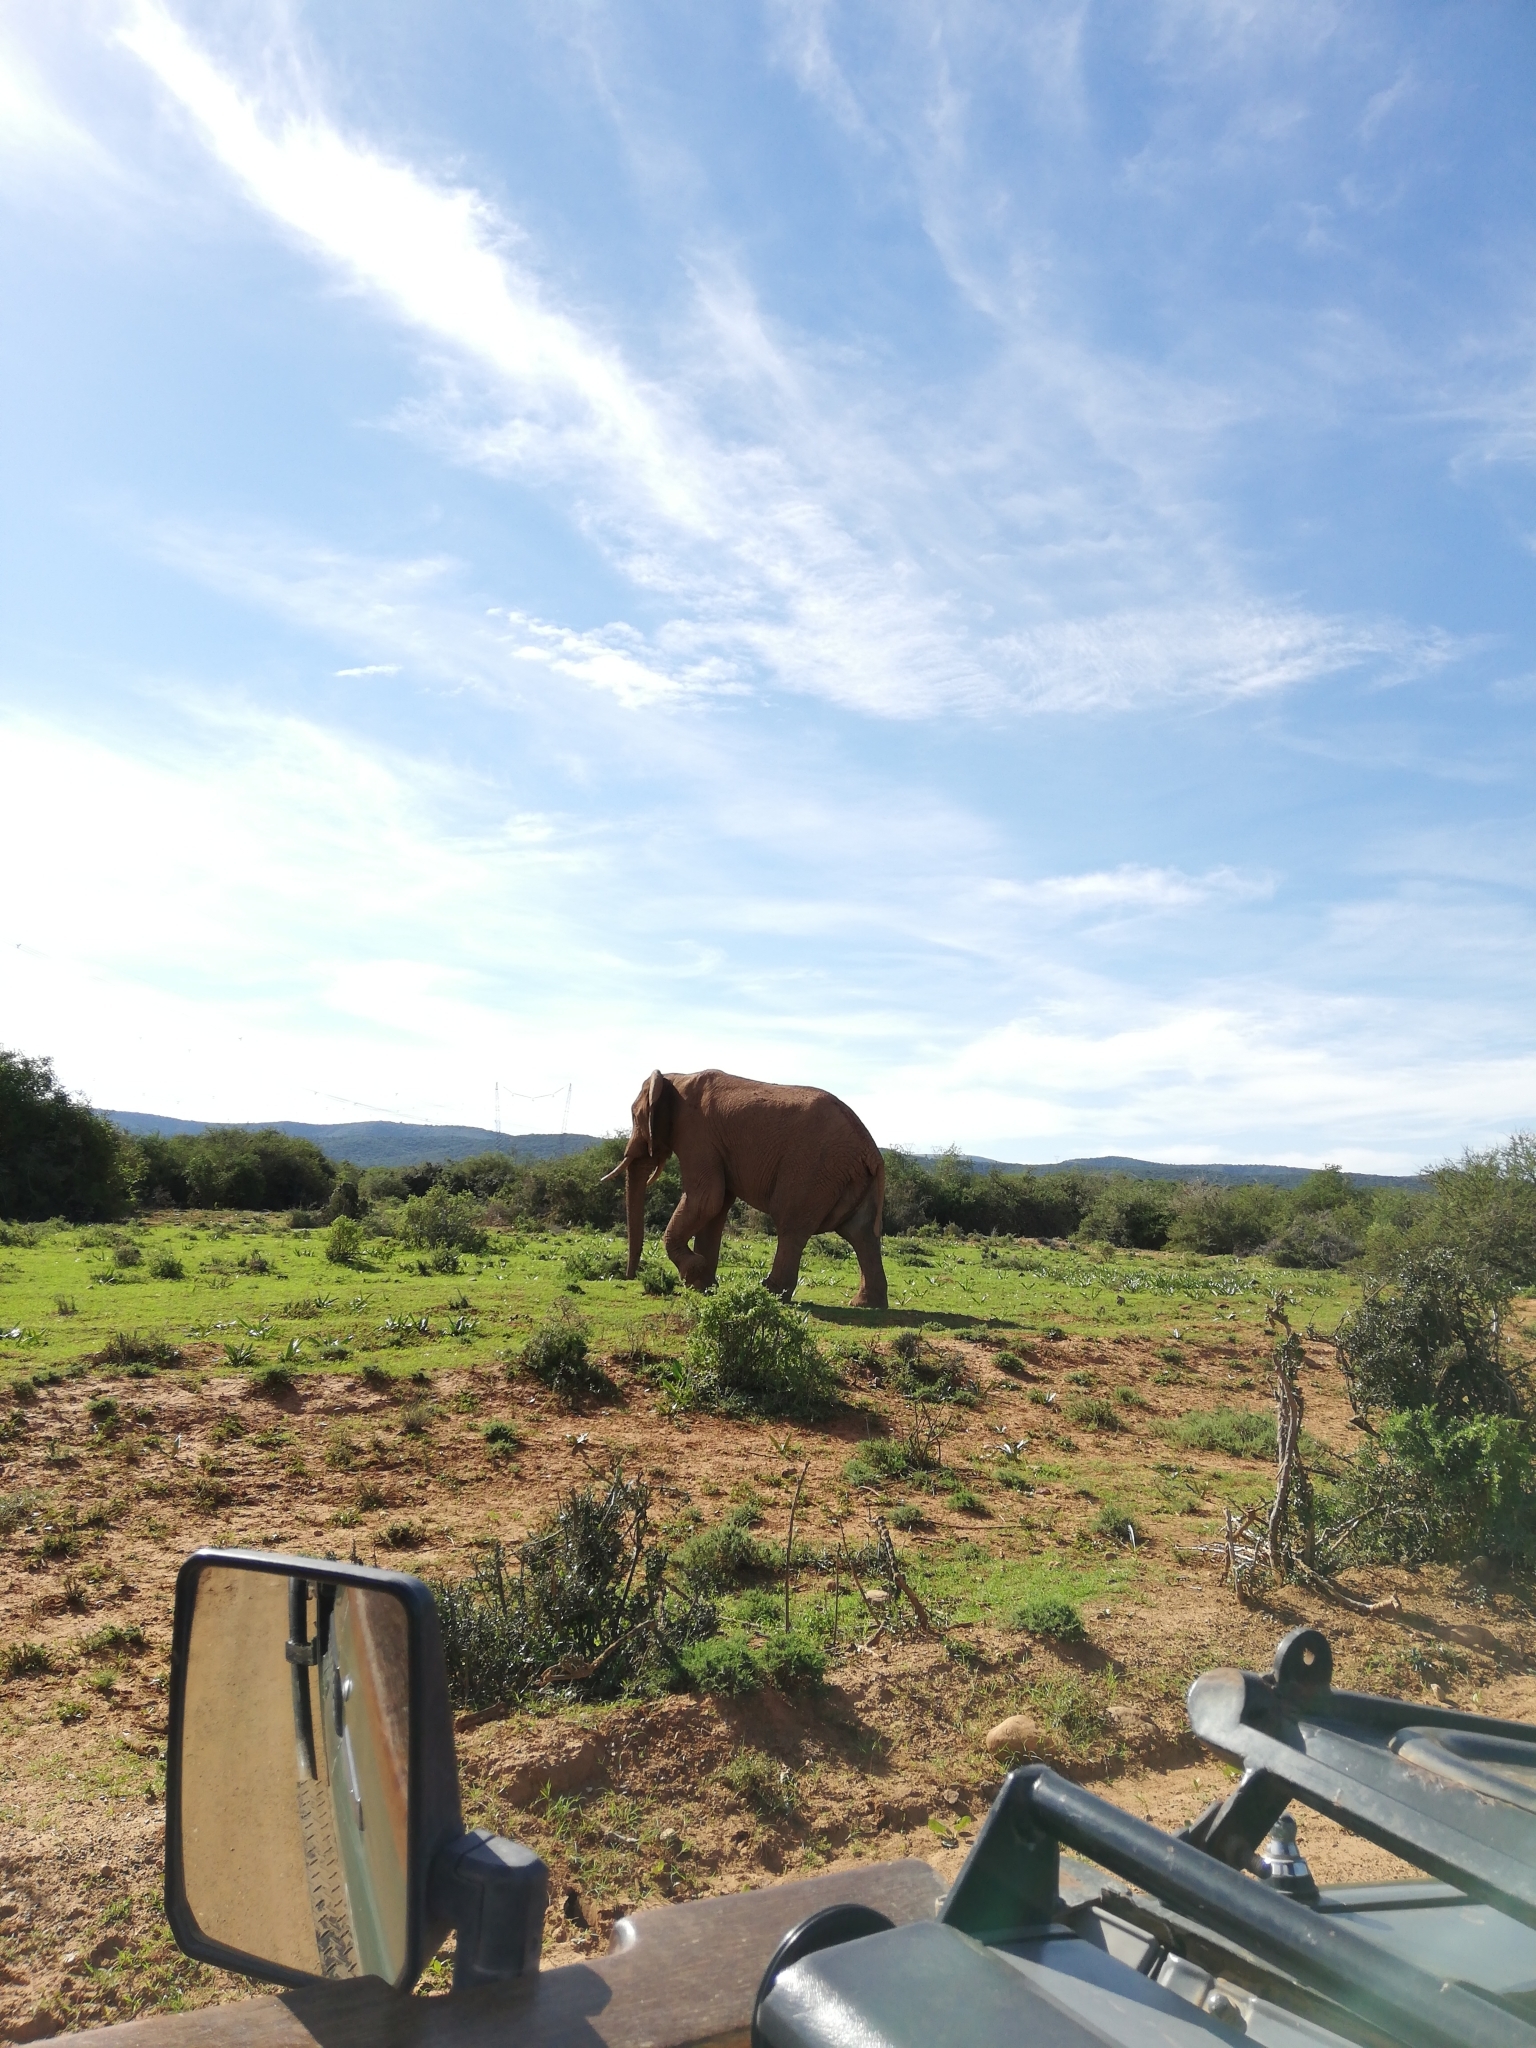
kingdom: Animalia
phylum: Chordata
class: Mammalia
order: Proboscidea
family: Elephantidae
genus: Loxodonta
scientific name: Loxodonta africana
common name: African elephant
